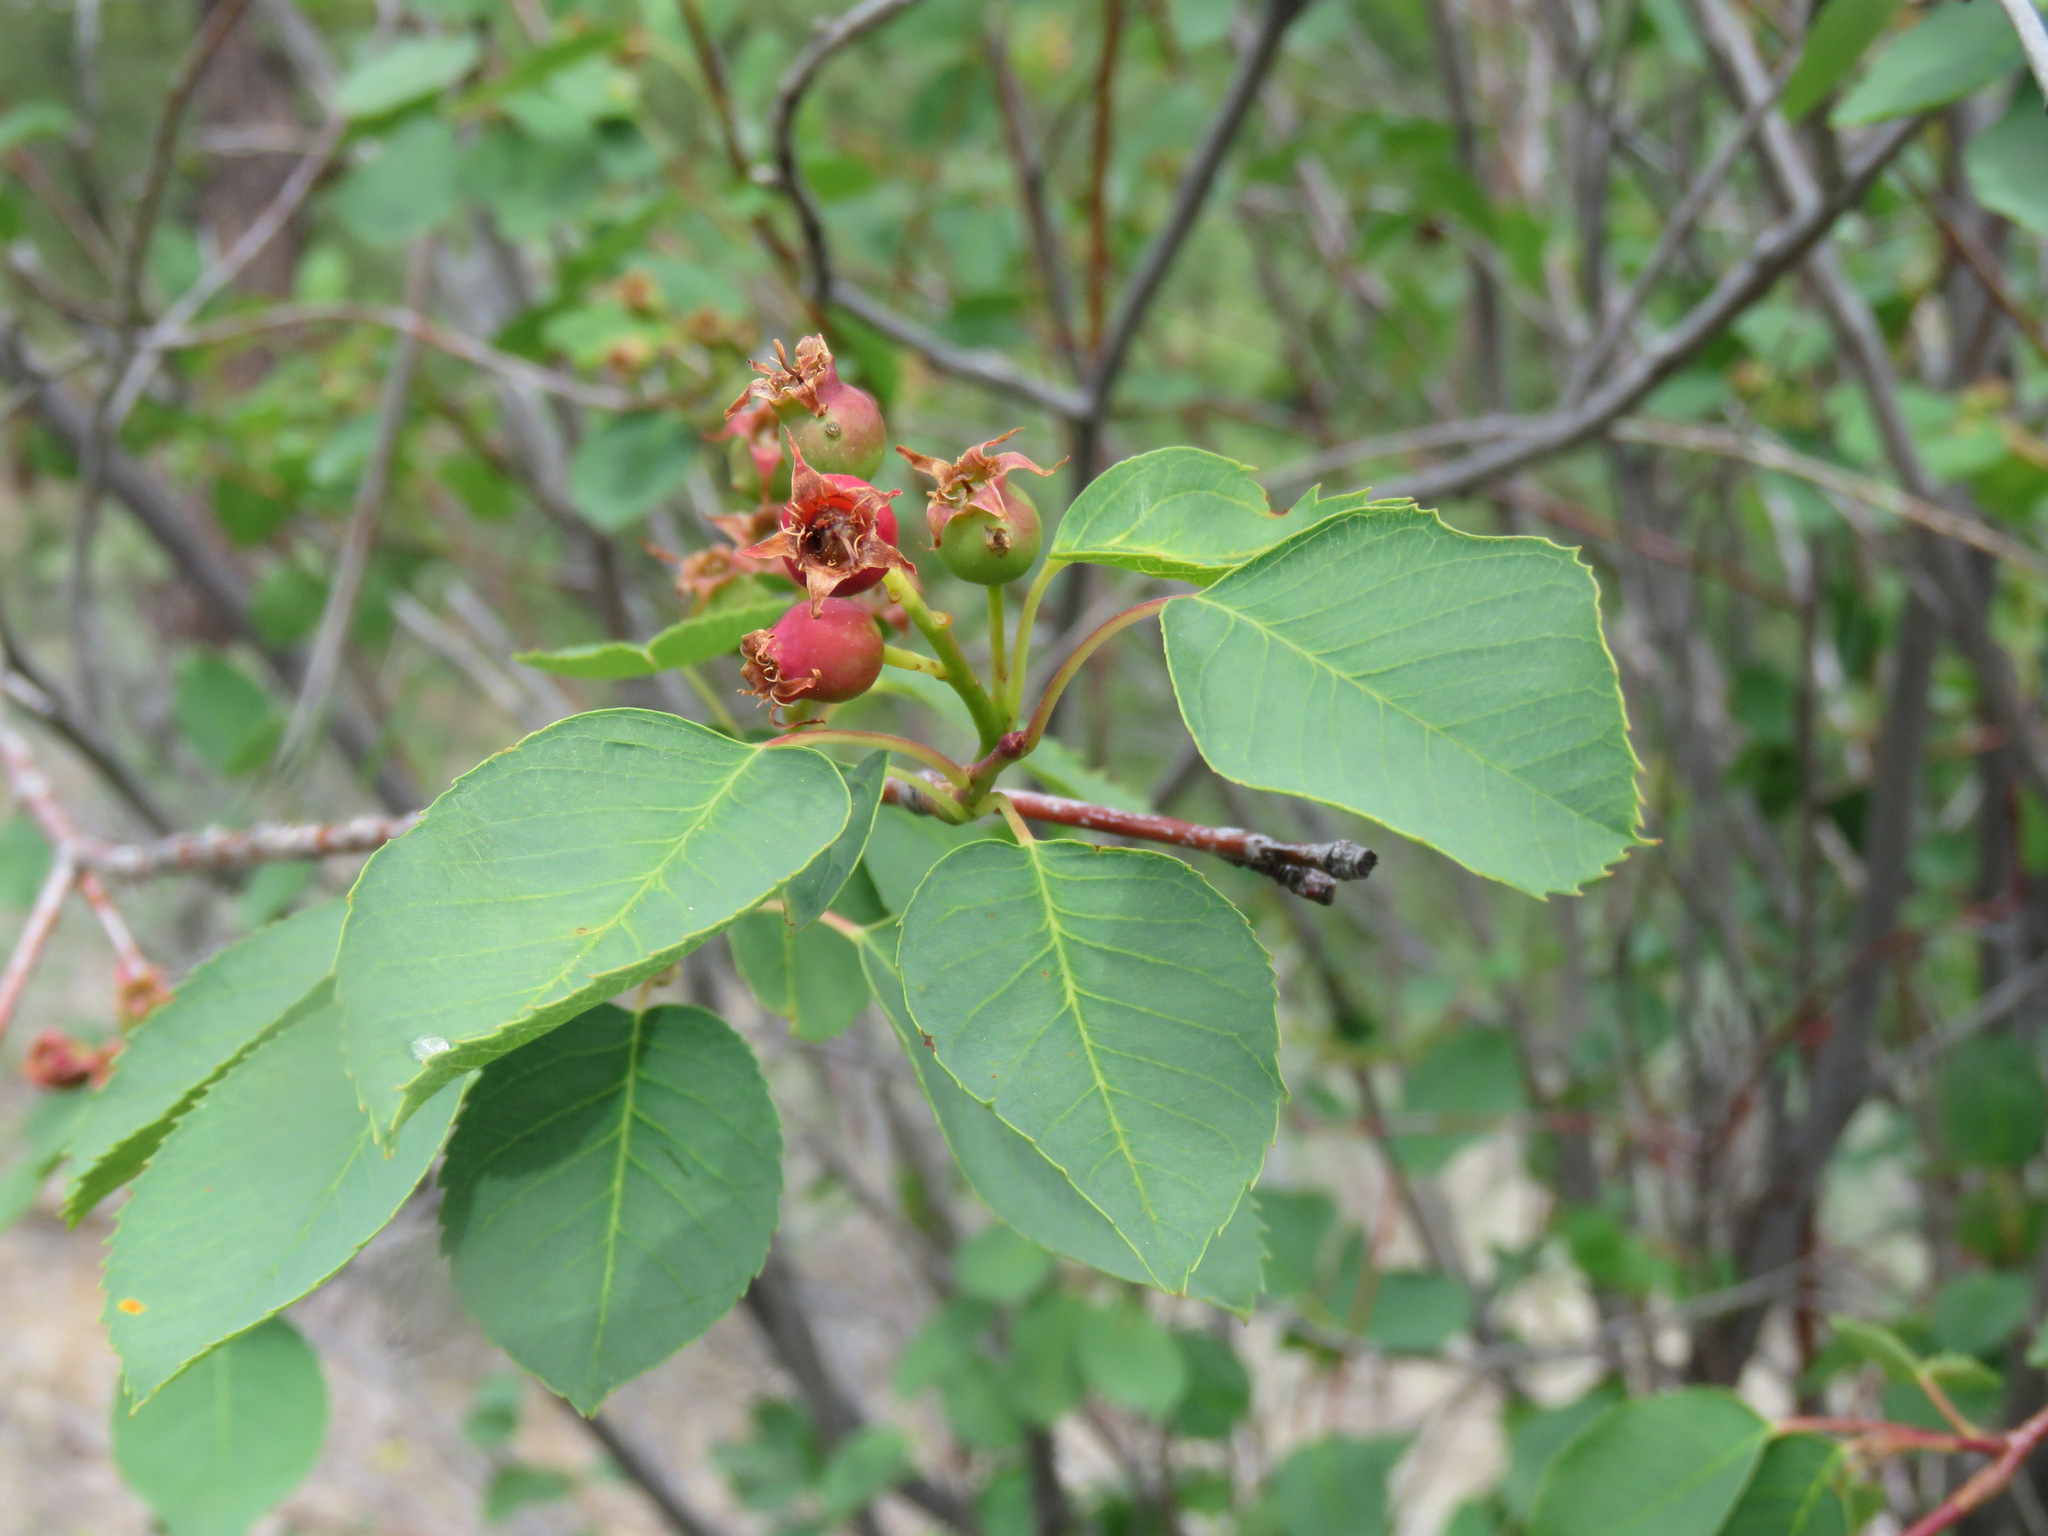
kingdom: Plantae
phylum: Tracheophyta
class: Magnoliopsida
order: Rosales
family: Rosaceae
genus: Amelanchier
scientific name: Amelanchier alnifolia
